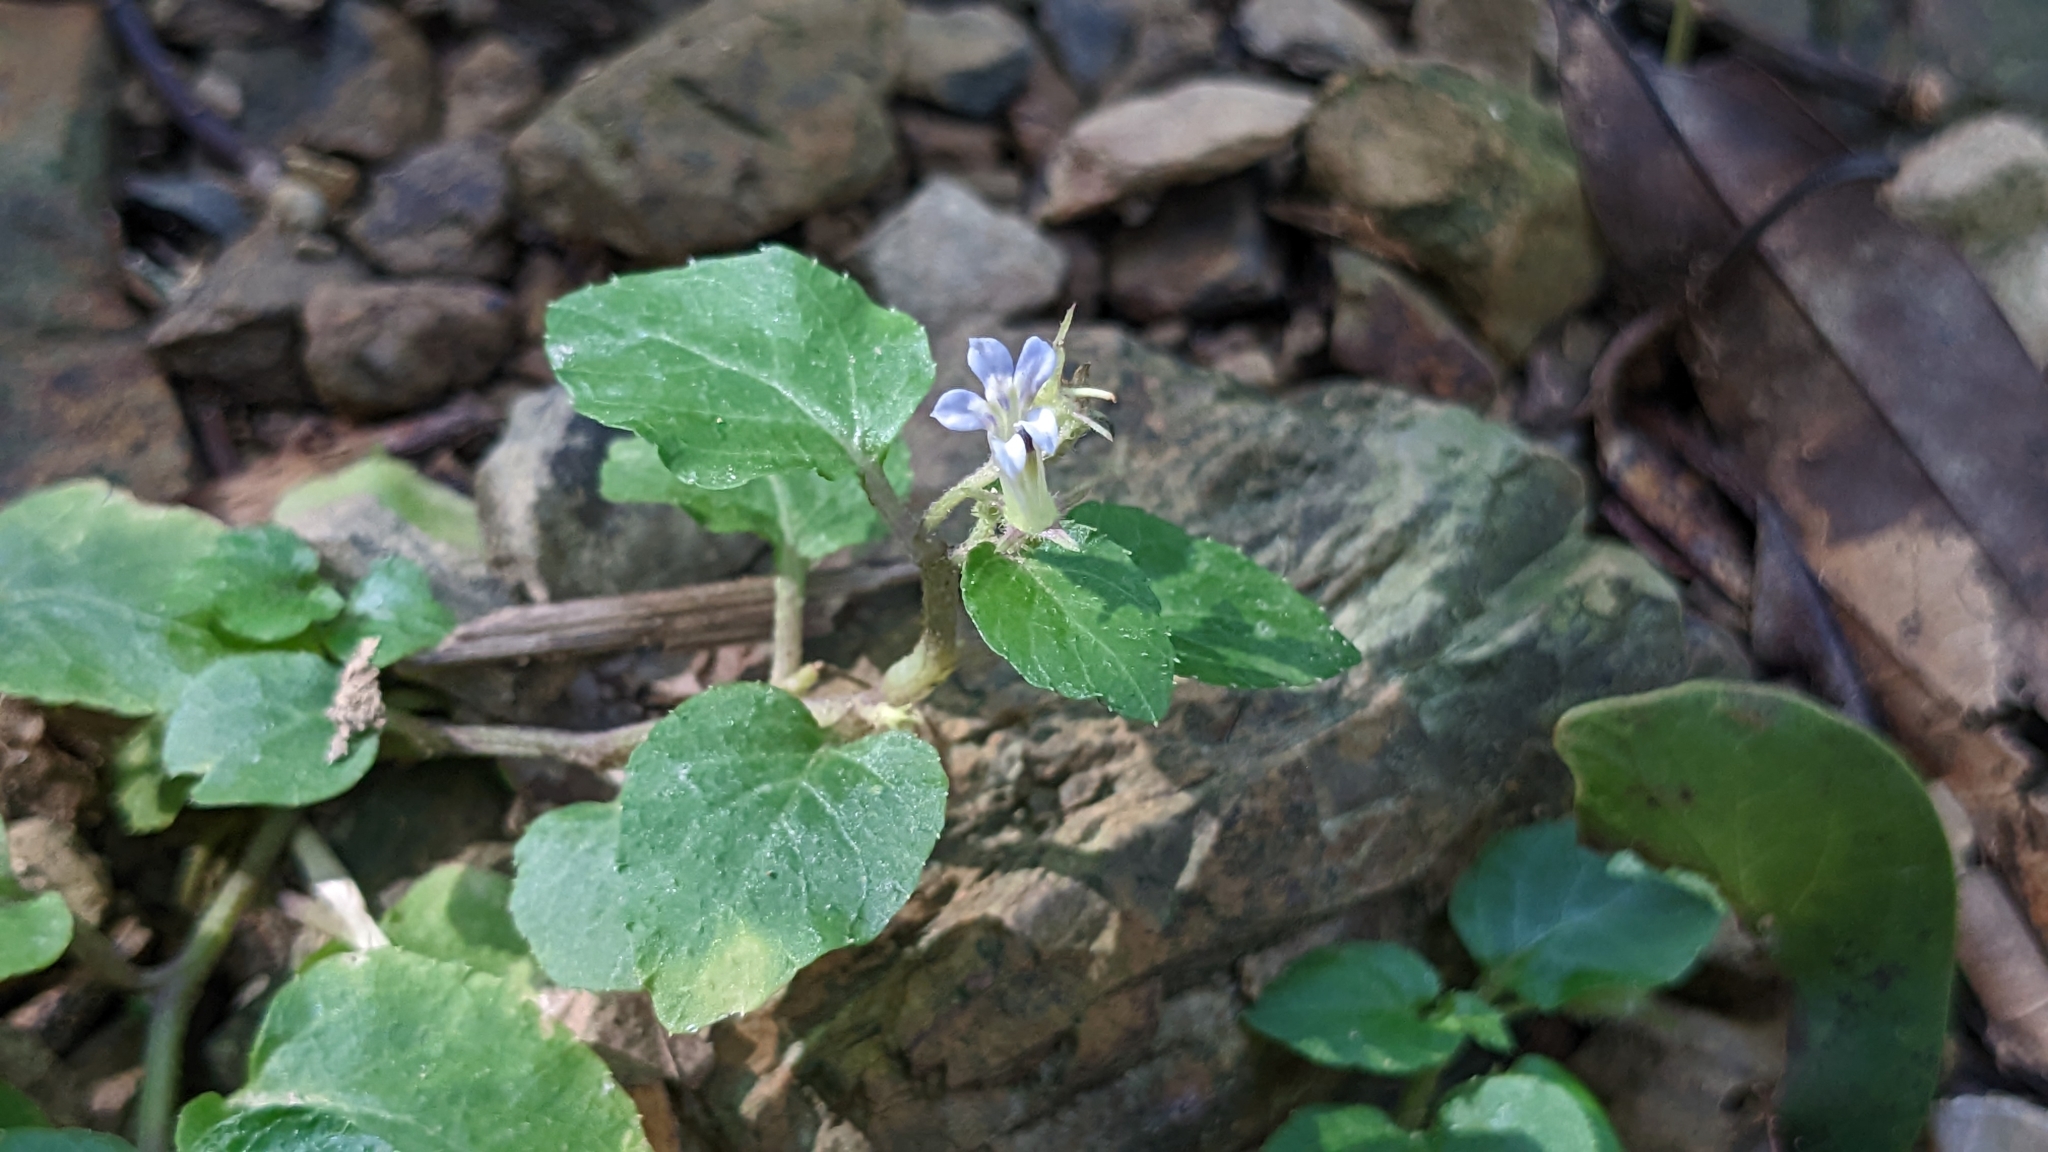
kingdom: Plantae
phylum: Tracheophyta
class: Magnoliopsida
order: Asterales
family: Campanulaceae
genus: Lobelia
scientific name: Lobelia zeylanica
